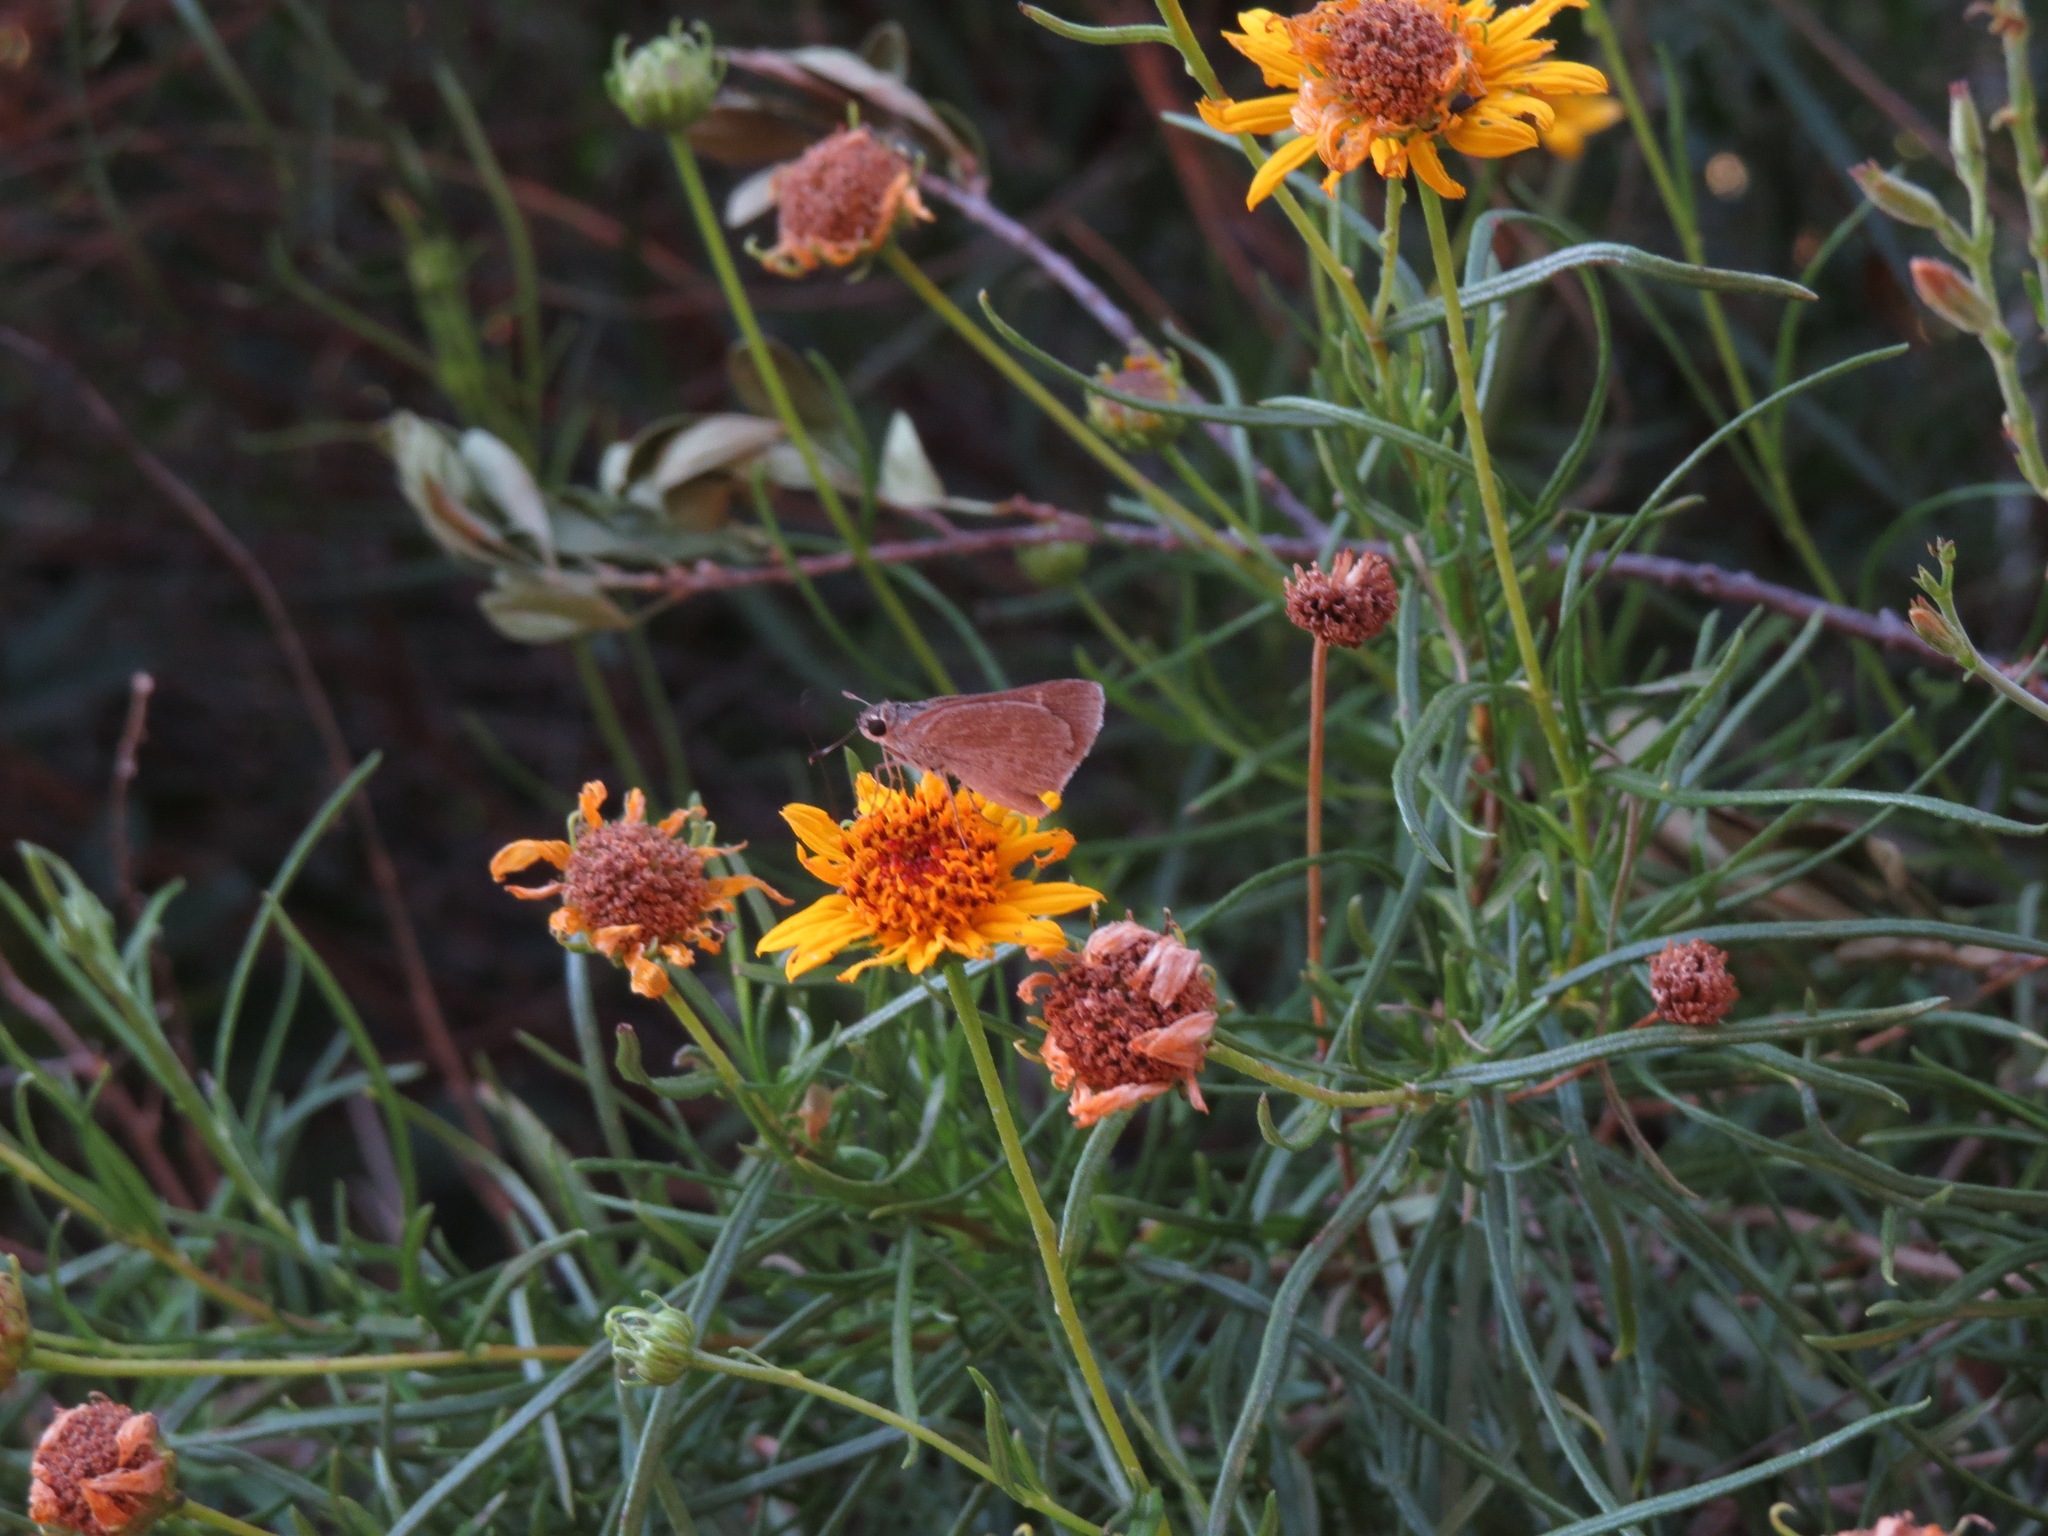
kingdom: Animalia
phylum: Arthropoda
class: Insecta
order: Lepidoptera
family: Hesperiidae
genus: Lerodea
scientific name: Lerodea eufala
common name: Eufala skipper
